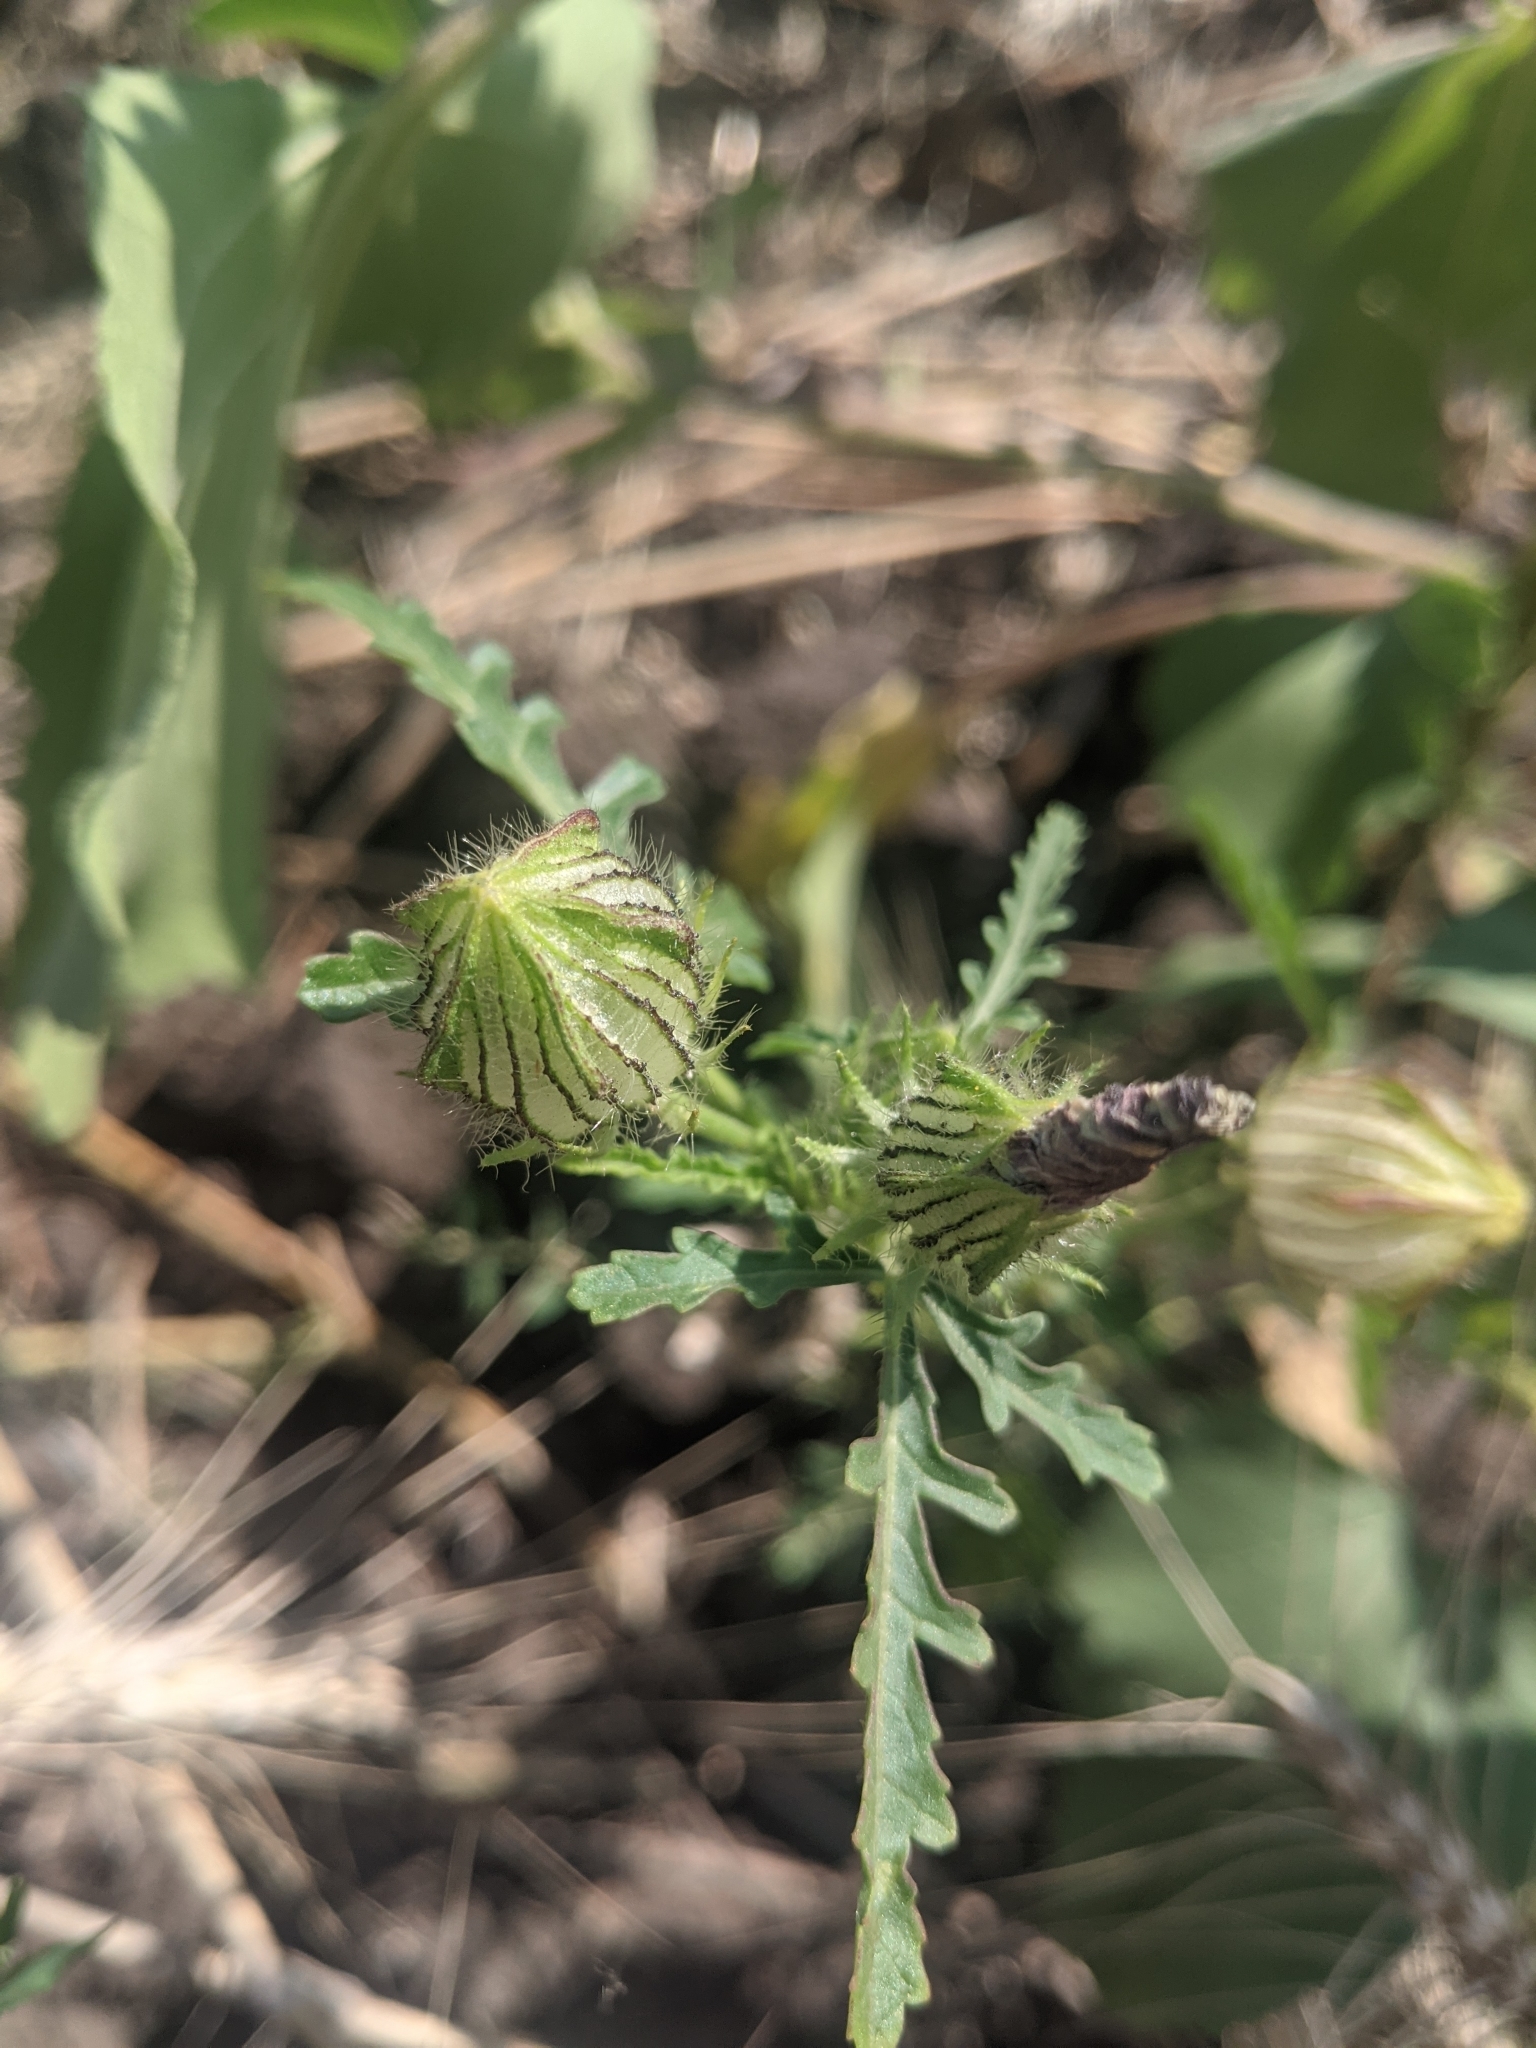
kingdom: Plantae
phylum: Tracheophyta
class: Magnoliopsida
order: Malvales
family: Malvaceae
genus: Hibiscus
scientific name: Hibiscus trionum
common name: Bladder ketmia
